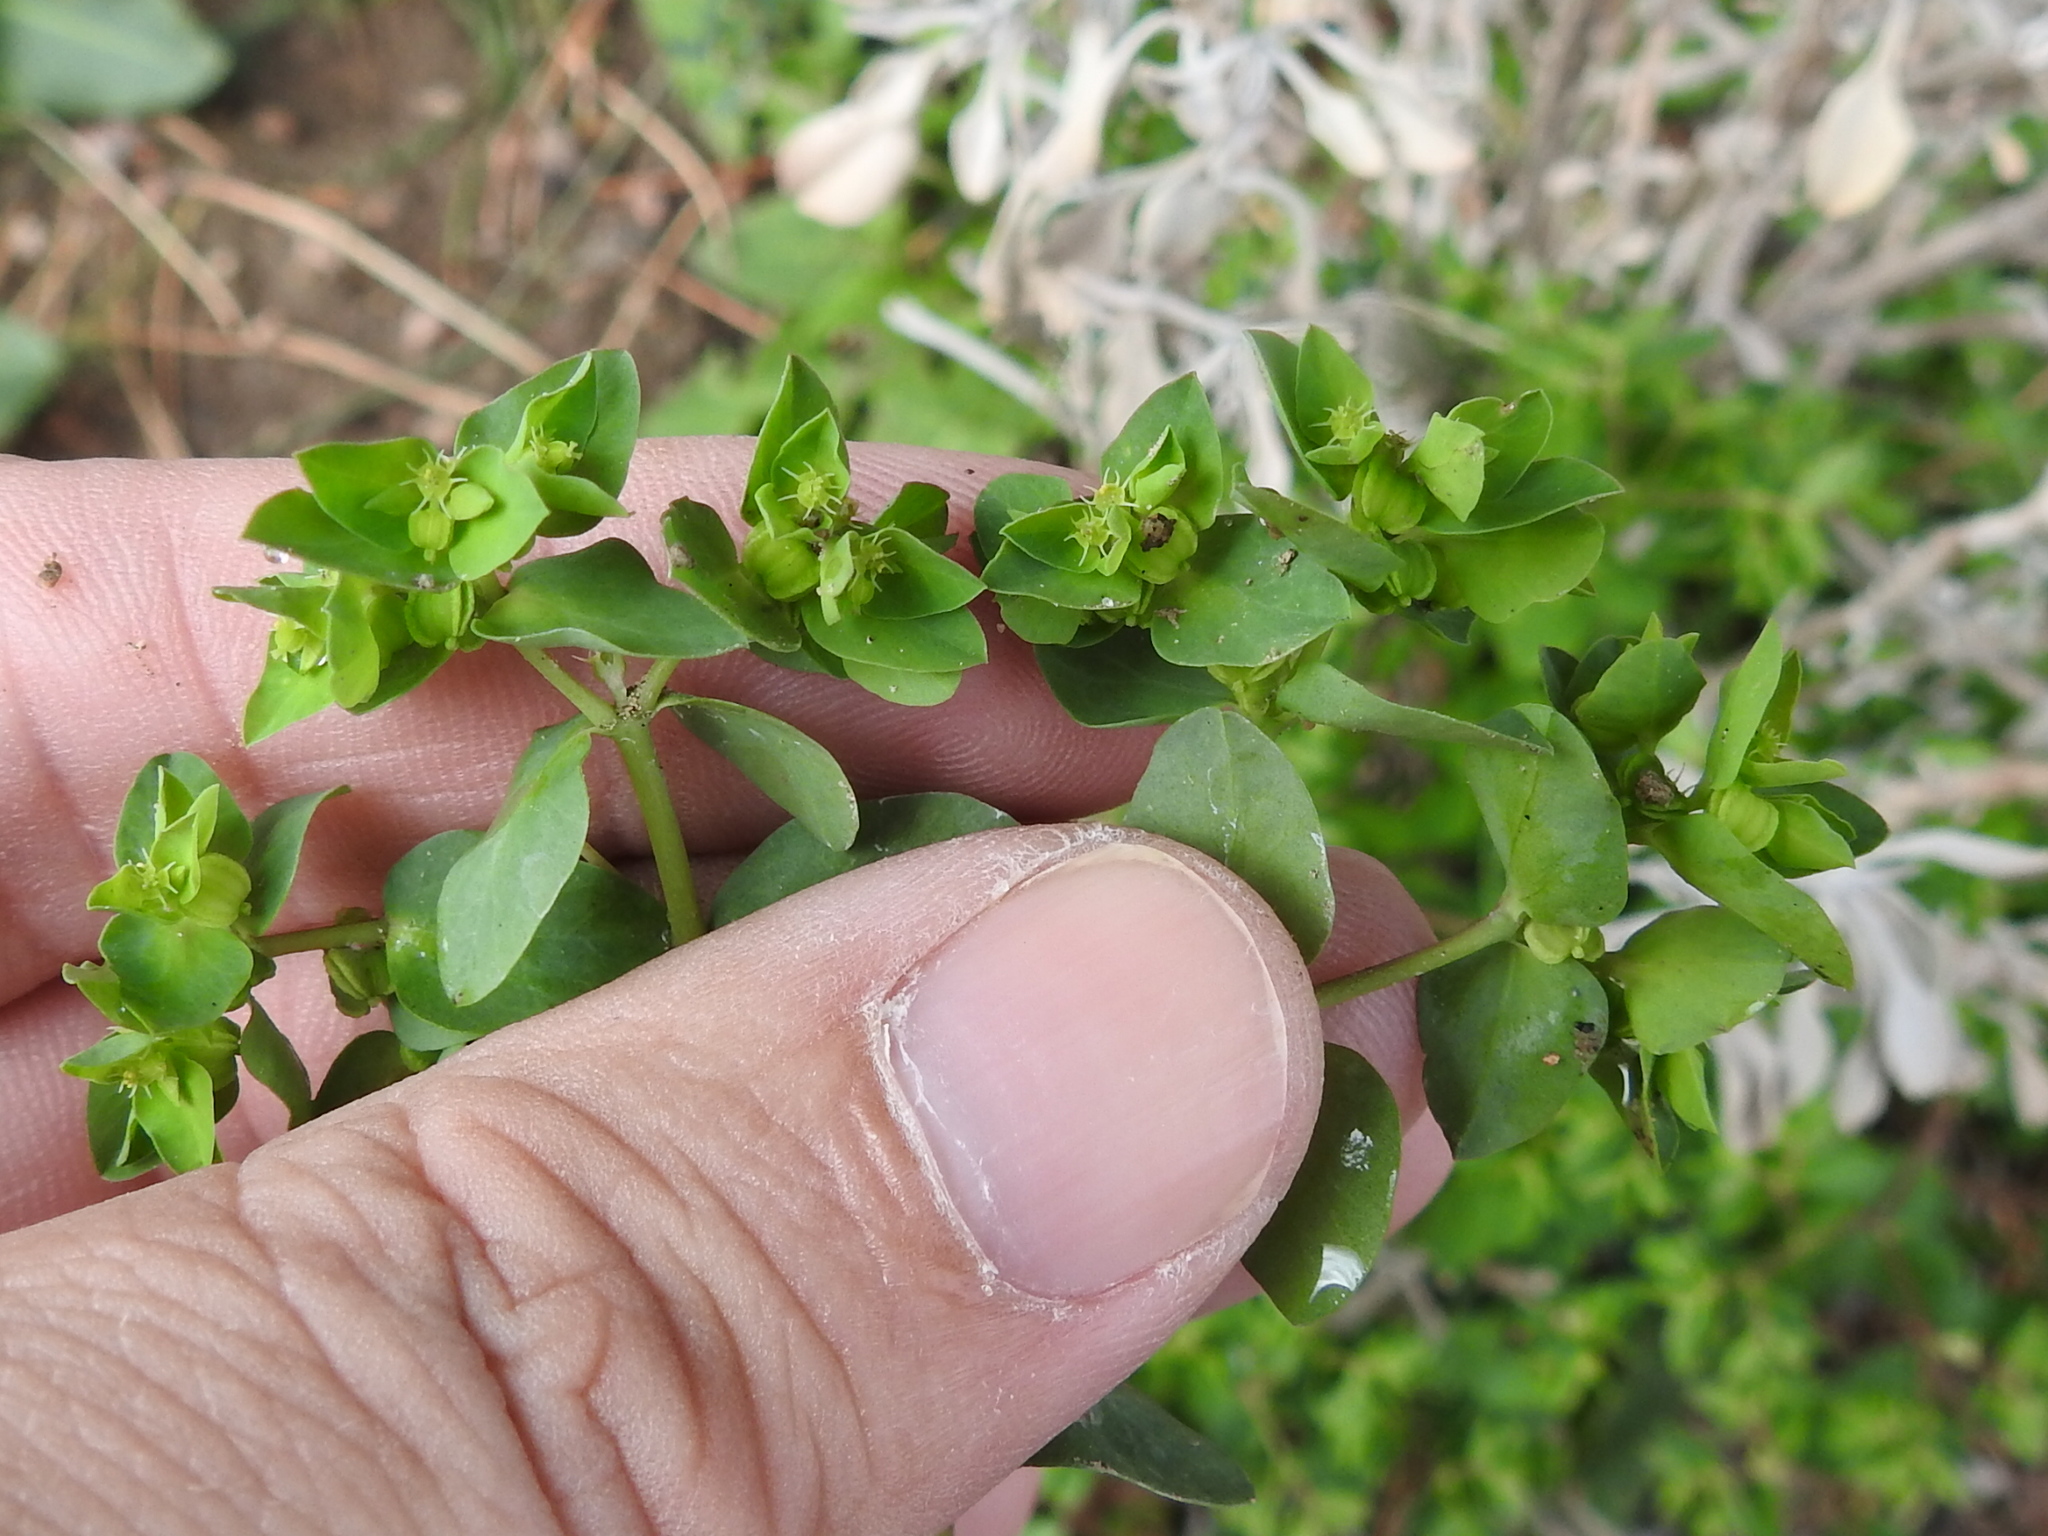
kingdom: Plantae
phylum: Tracheophyta
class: Magnoliopsida
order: Malpighiales
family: Euphorbiaceae
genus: Euphorbia
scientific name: Euphorbia peplus
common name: Petty spurge
